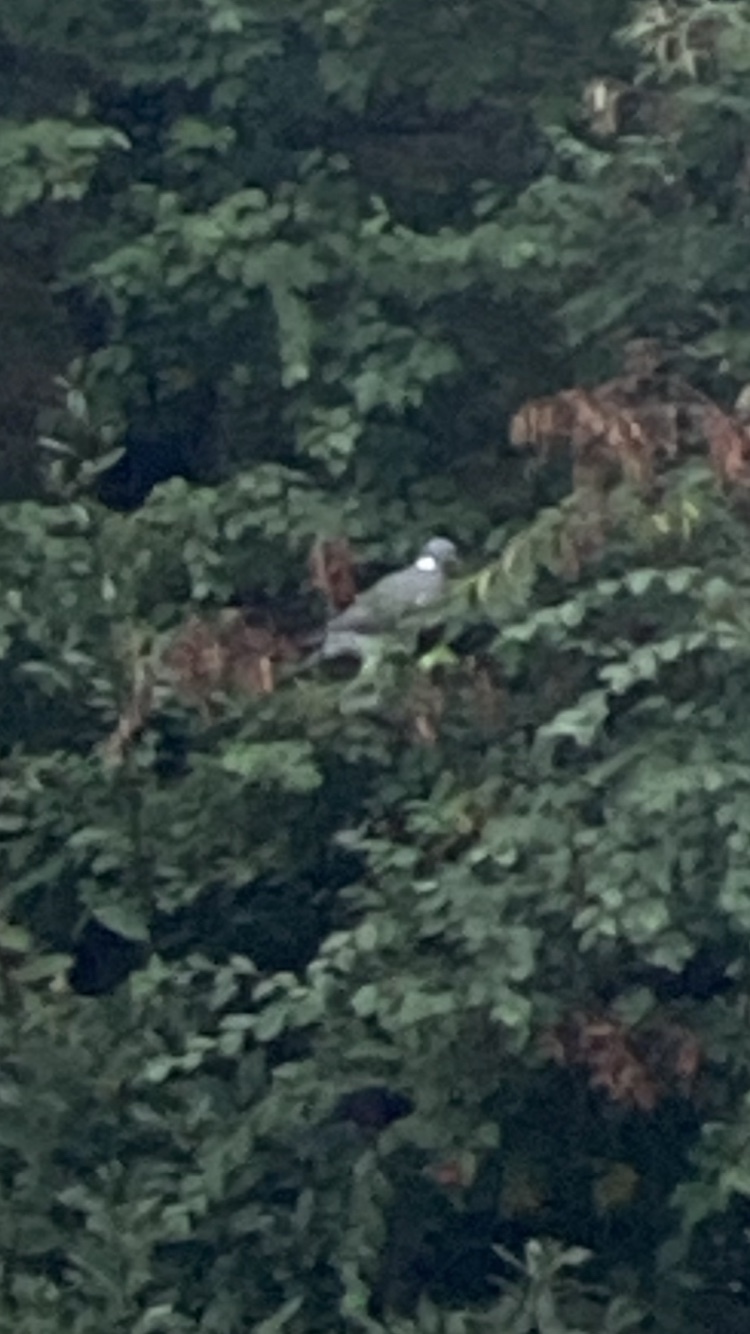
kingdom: Animalia
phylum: Chordata
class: Aves
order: Columbiformes
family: Columbidae
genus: Columba
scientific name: Columba palumbus
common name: Common wood pigeon
